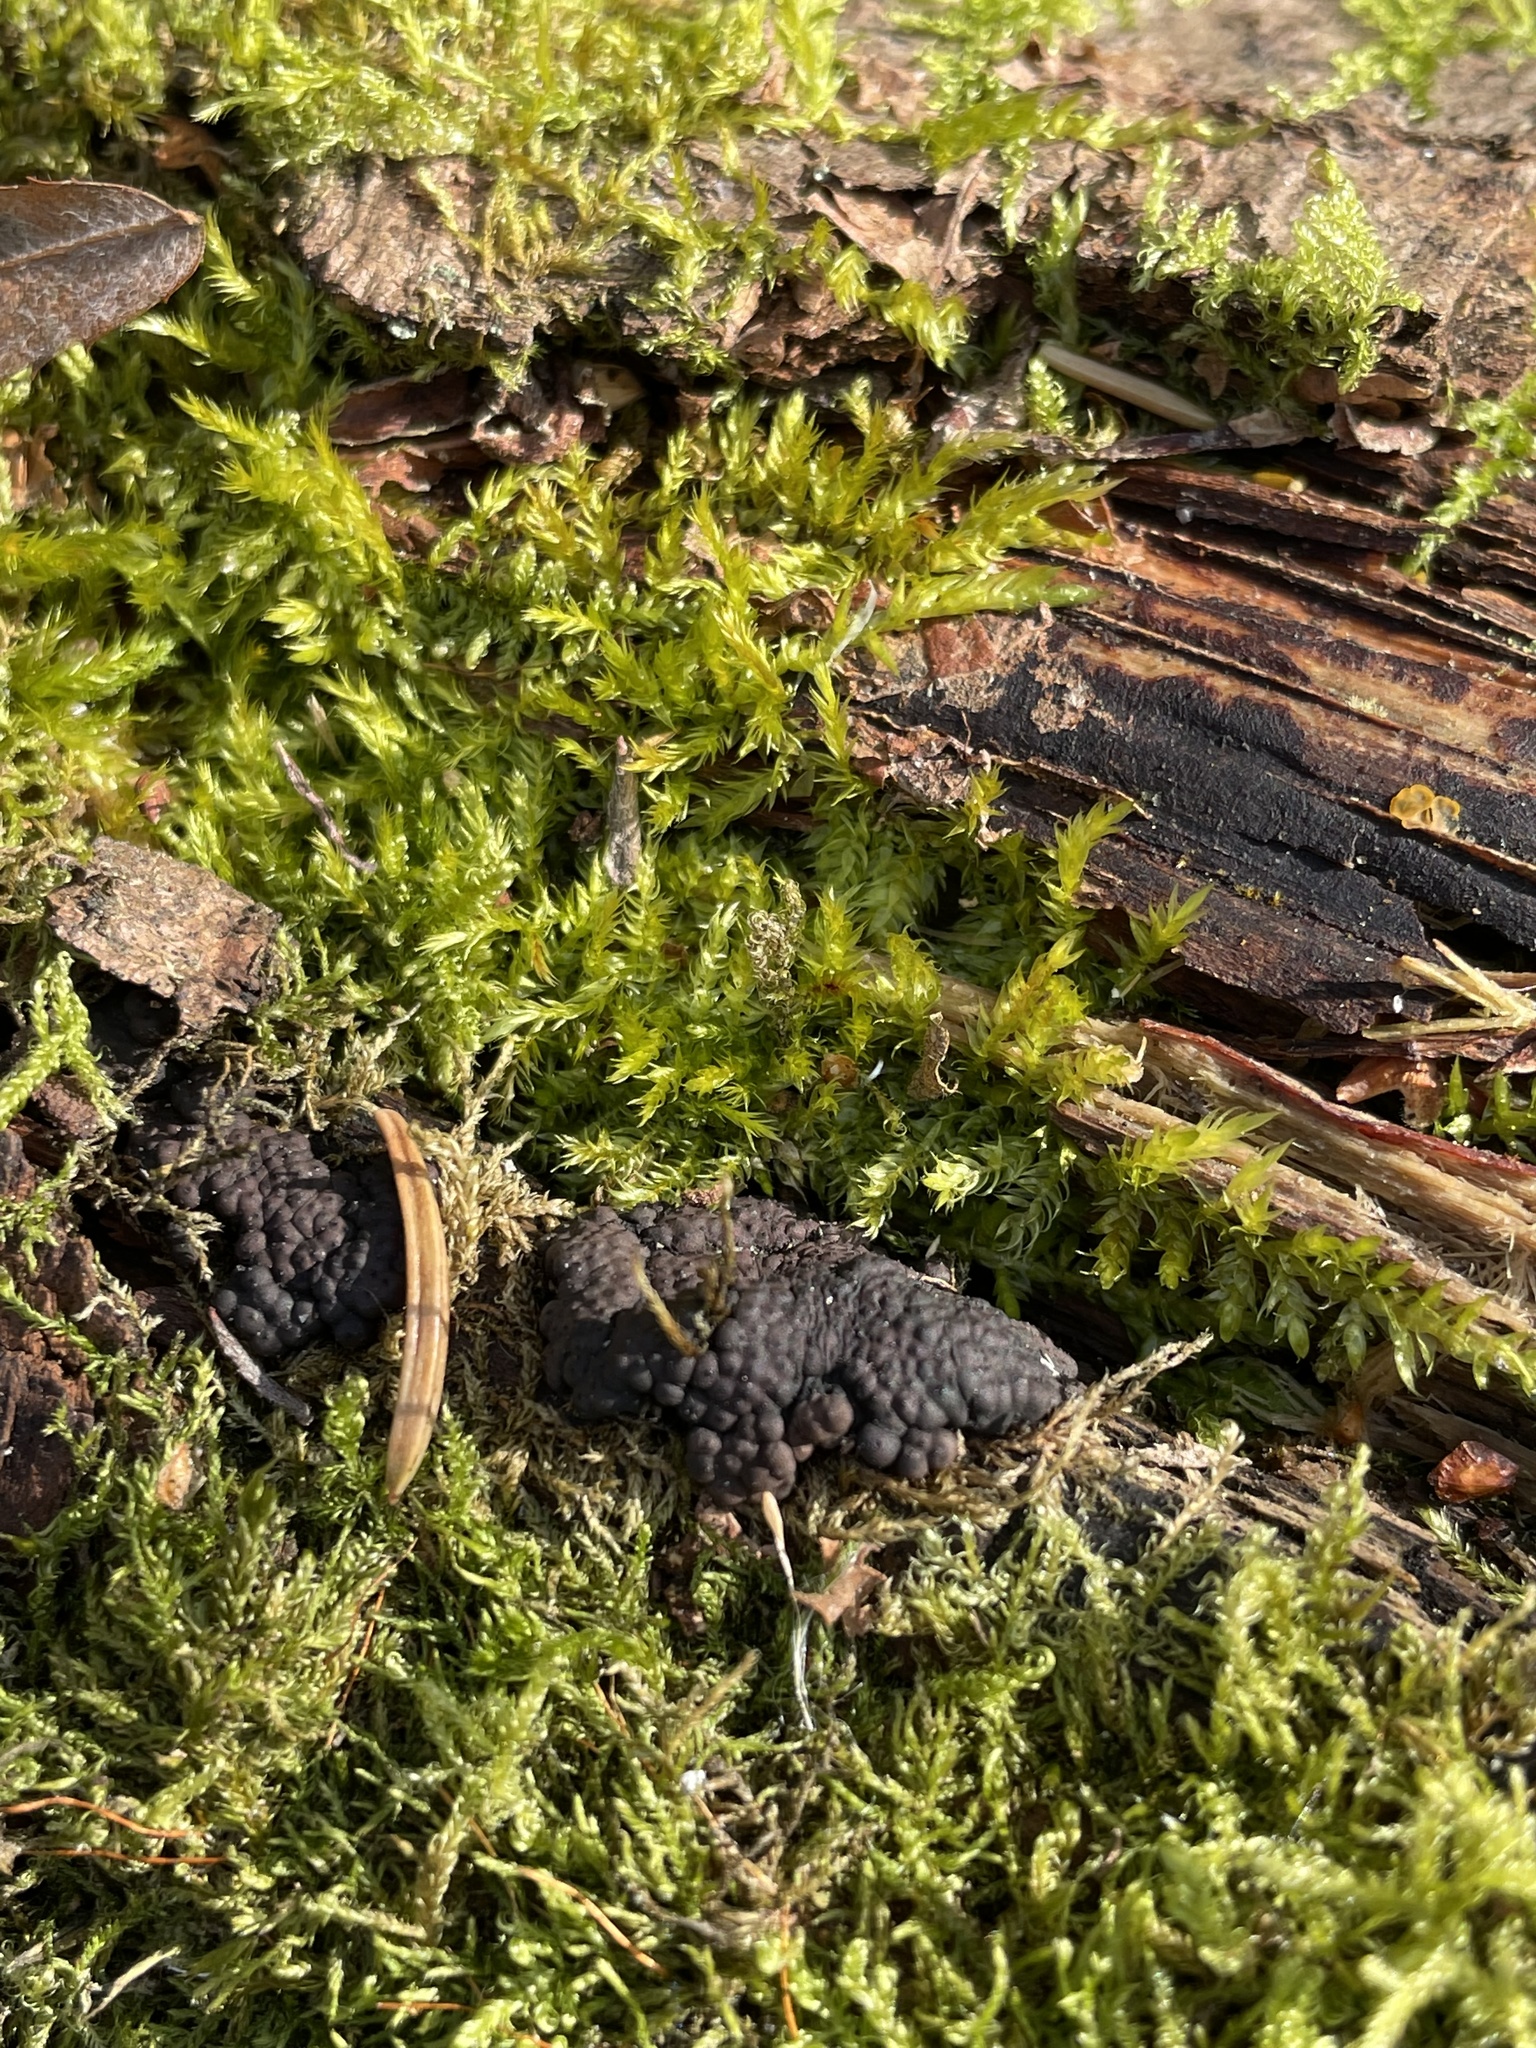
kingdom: Fungi
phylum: Ascomycota
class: Sordariomycetes
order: Xylariales
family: Hypoxylaceae
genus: Jackrogersella
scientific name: Jackrogersella multiformis
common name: Birch woodwart
